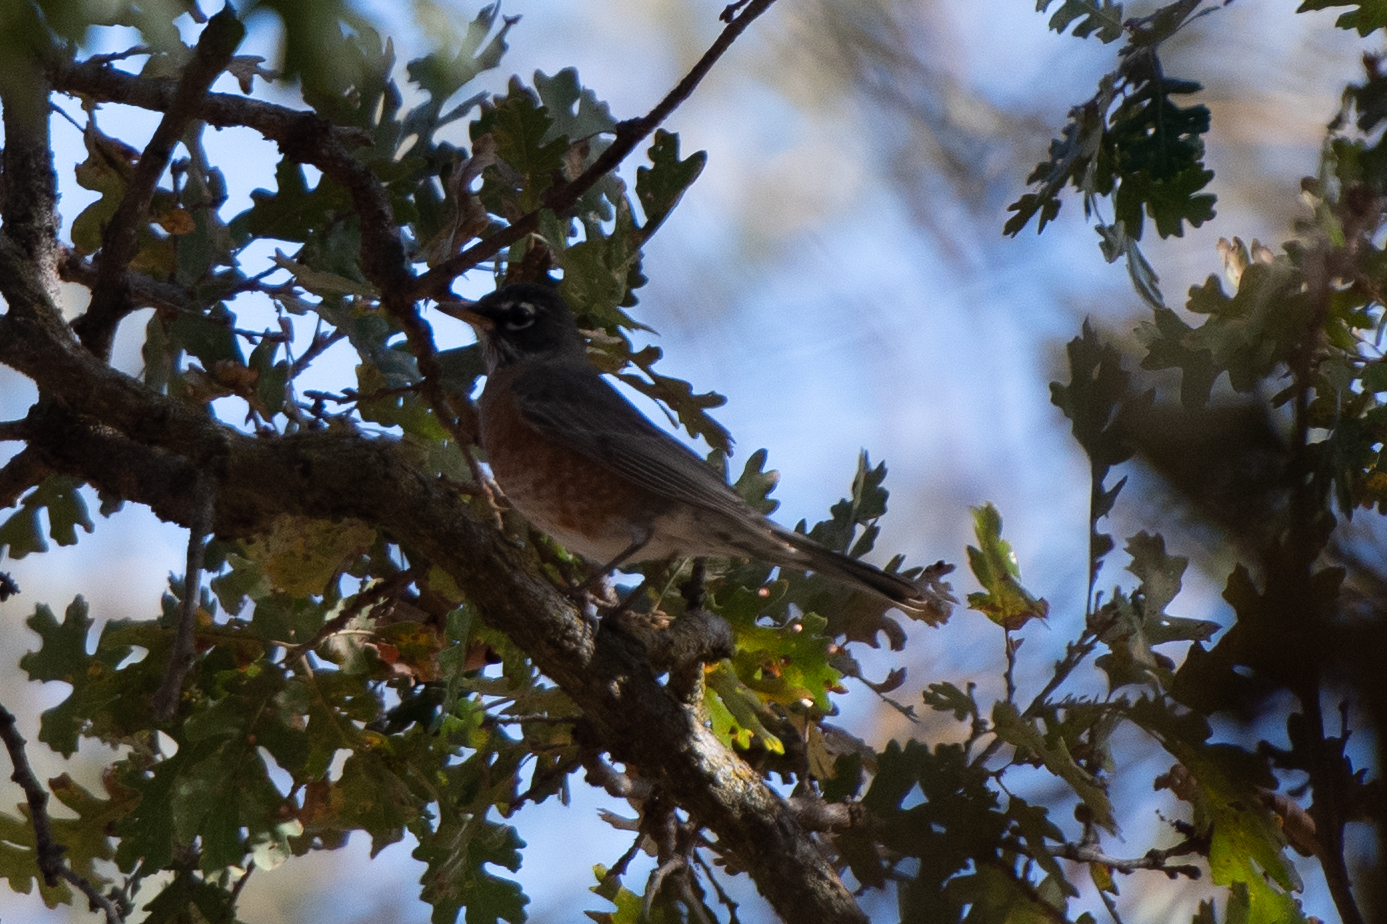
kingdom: Animalia
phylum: Chordata
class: Aves
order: Passeriformes
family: Turdidae
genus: Turdus
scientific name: Turdus migratorius
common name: American robin
